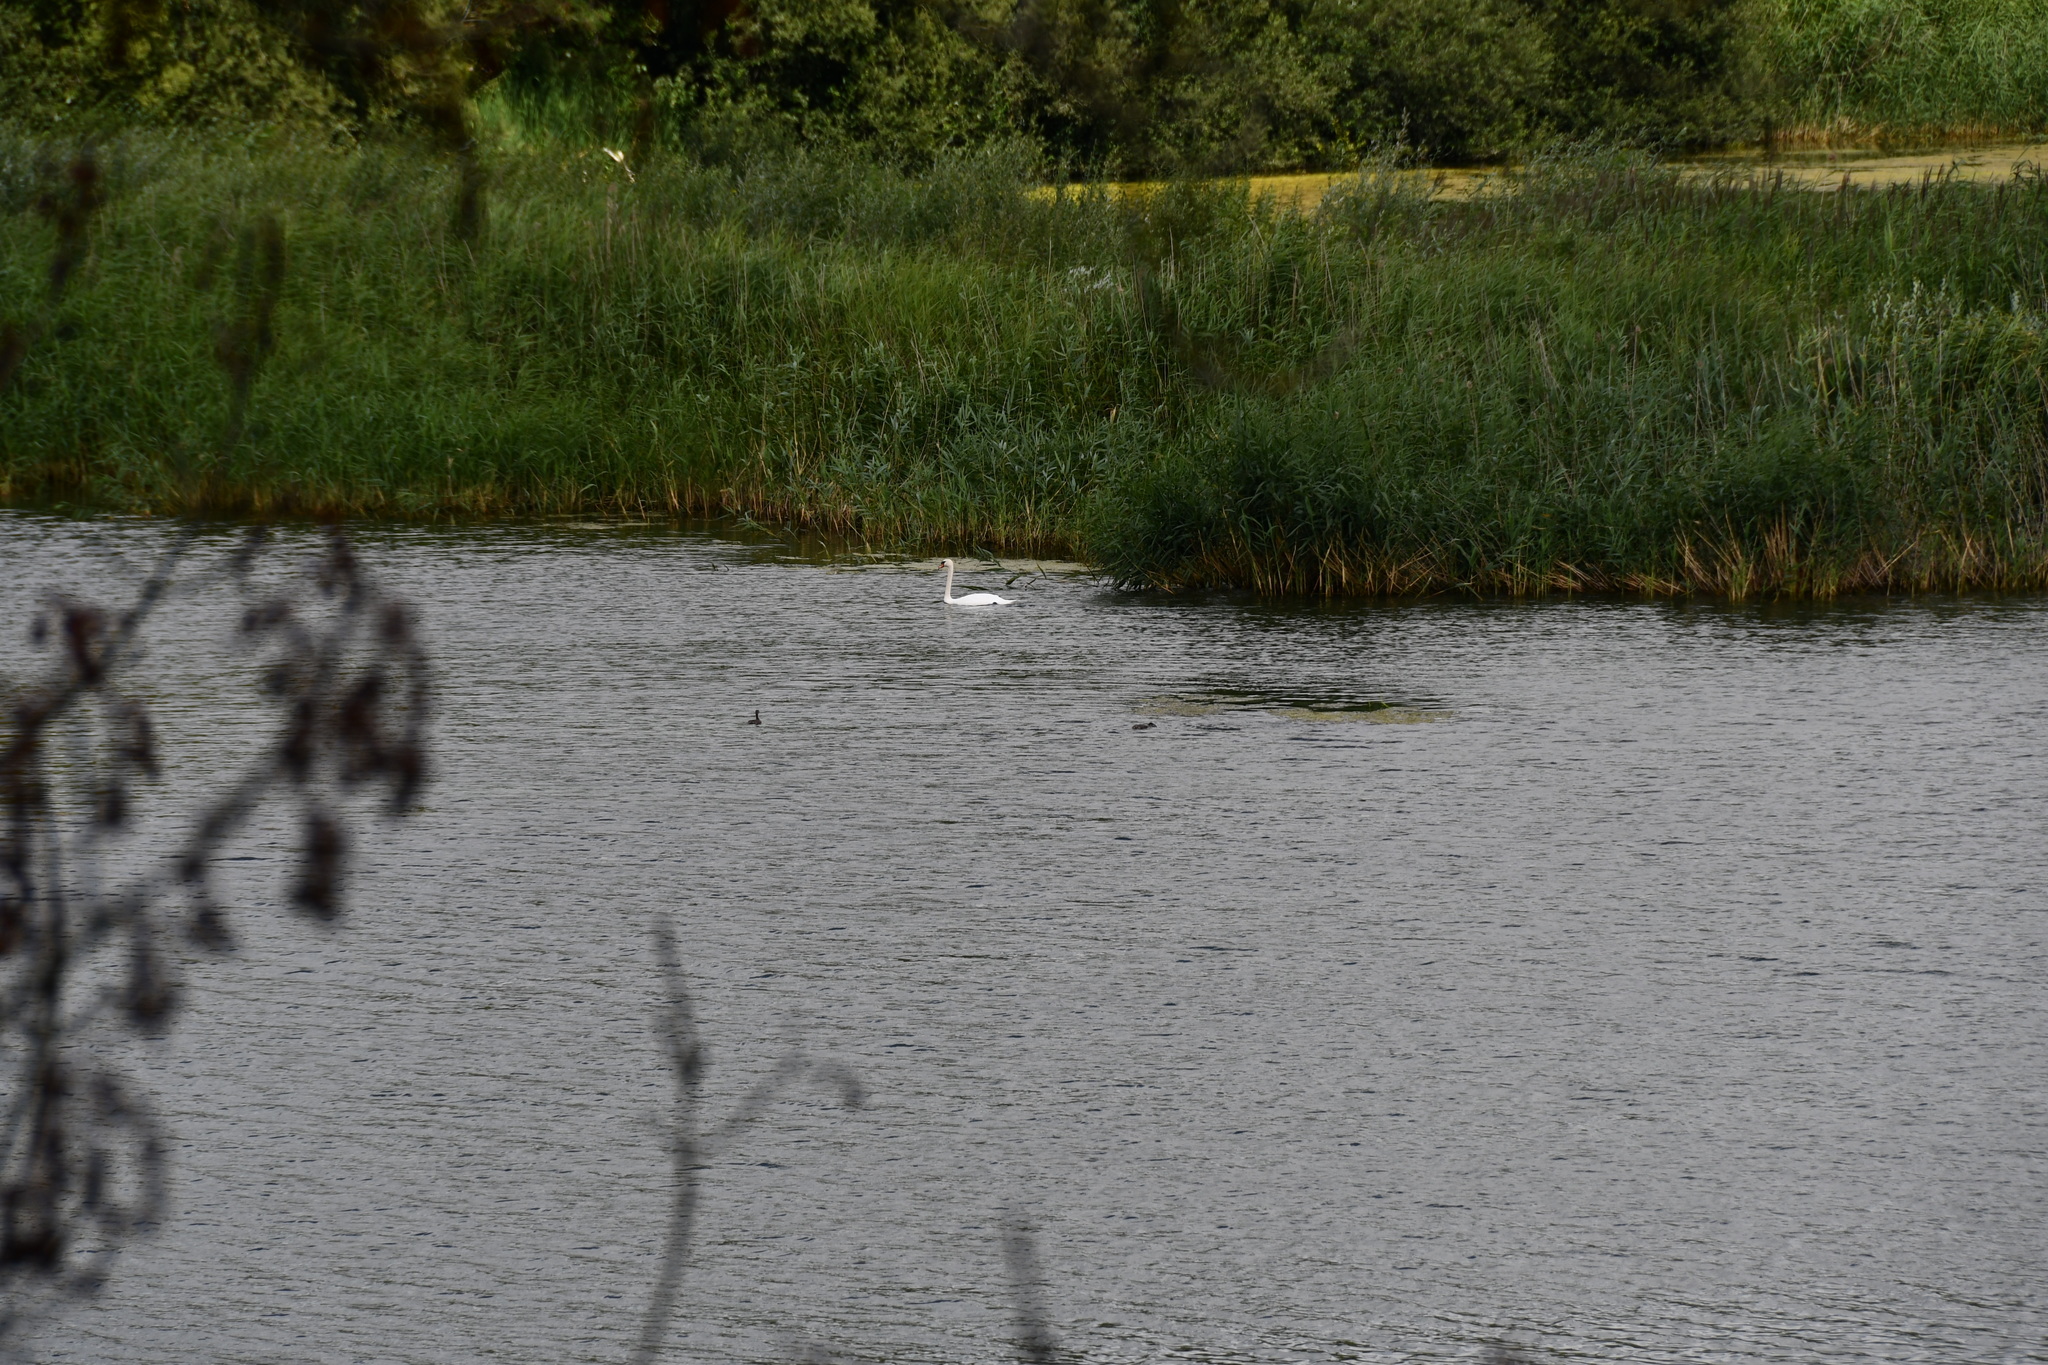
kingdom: Animalia
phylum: Chordata
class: Aves
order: Anseriformes
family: Anatidae
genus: Cygnus
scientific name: Cygnus olor
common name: Mute swan
